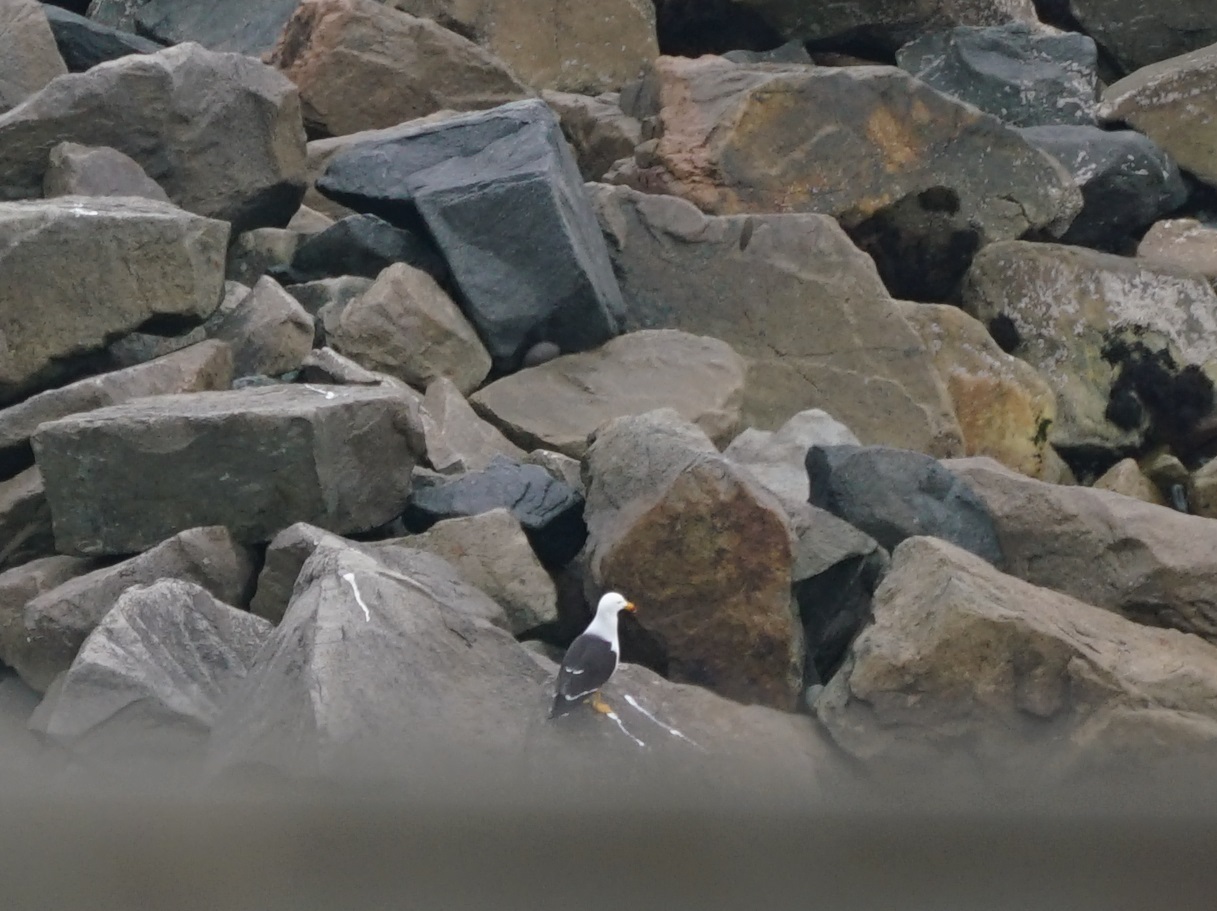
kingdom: Animalia
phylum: Chordata
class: Aves
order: Charadriiformes
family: Laridae
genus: Larus
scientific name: Larus belcheri
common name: Belcher's gull
